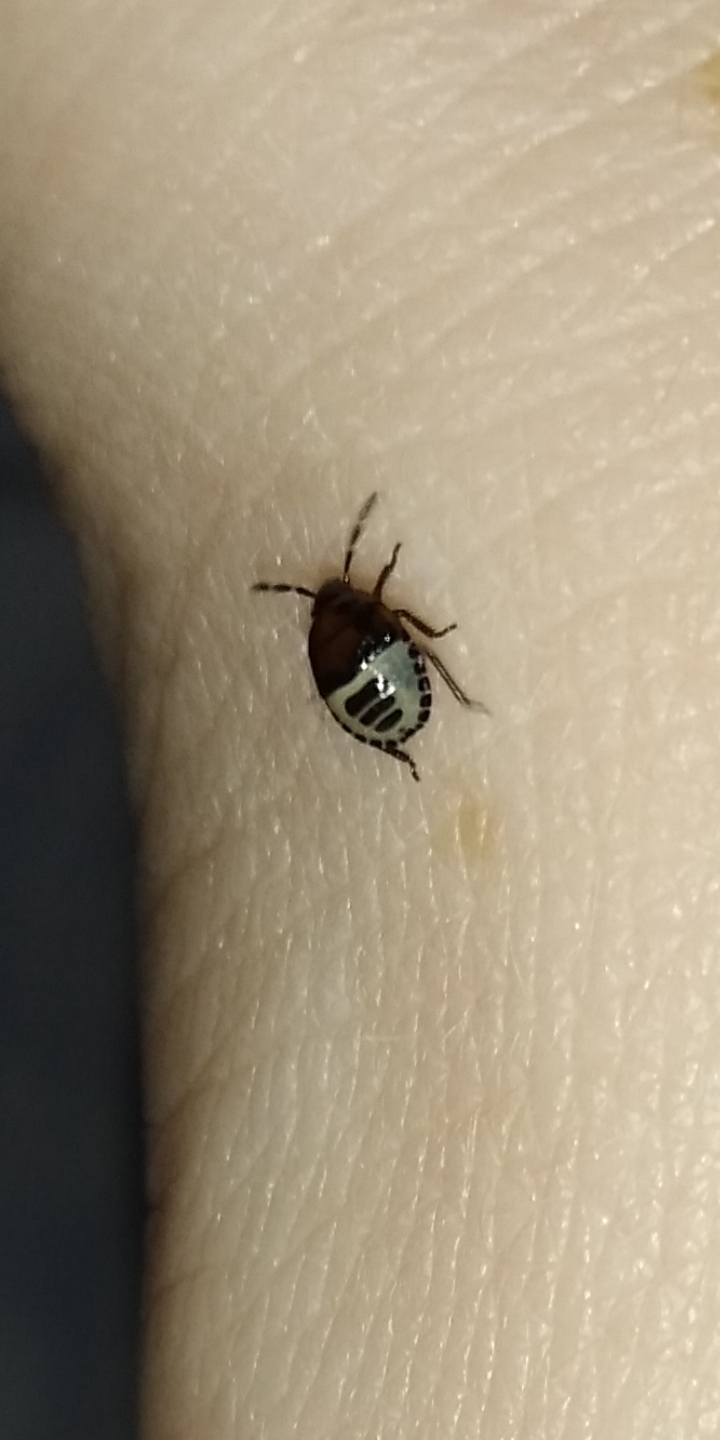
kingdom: Animalia
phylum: Arthropoda
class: Insecta
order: Hemiptera
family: Cydnidae
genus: Tritomegas
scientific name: Tritomegas sexmaculatus
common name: Rambur's pied shieldbug
